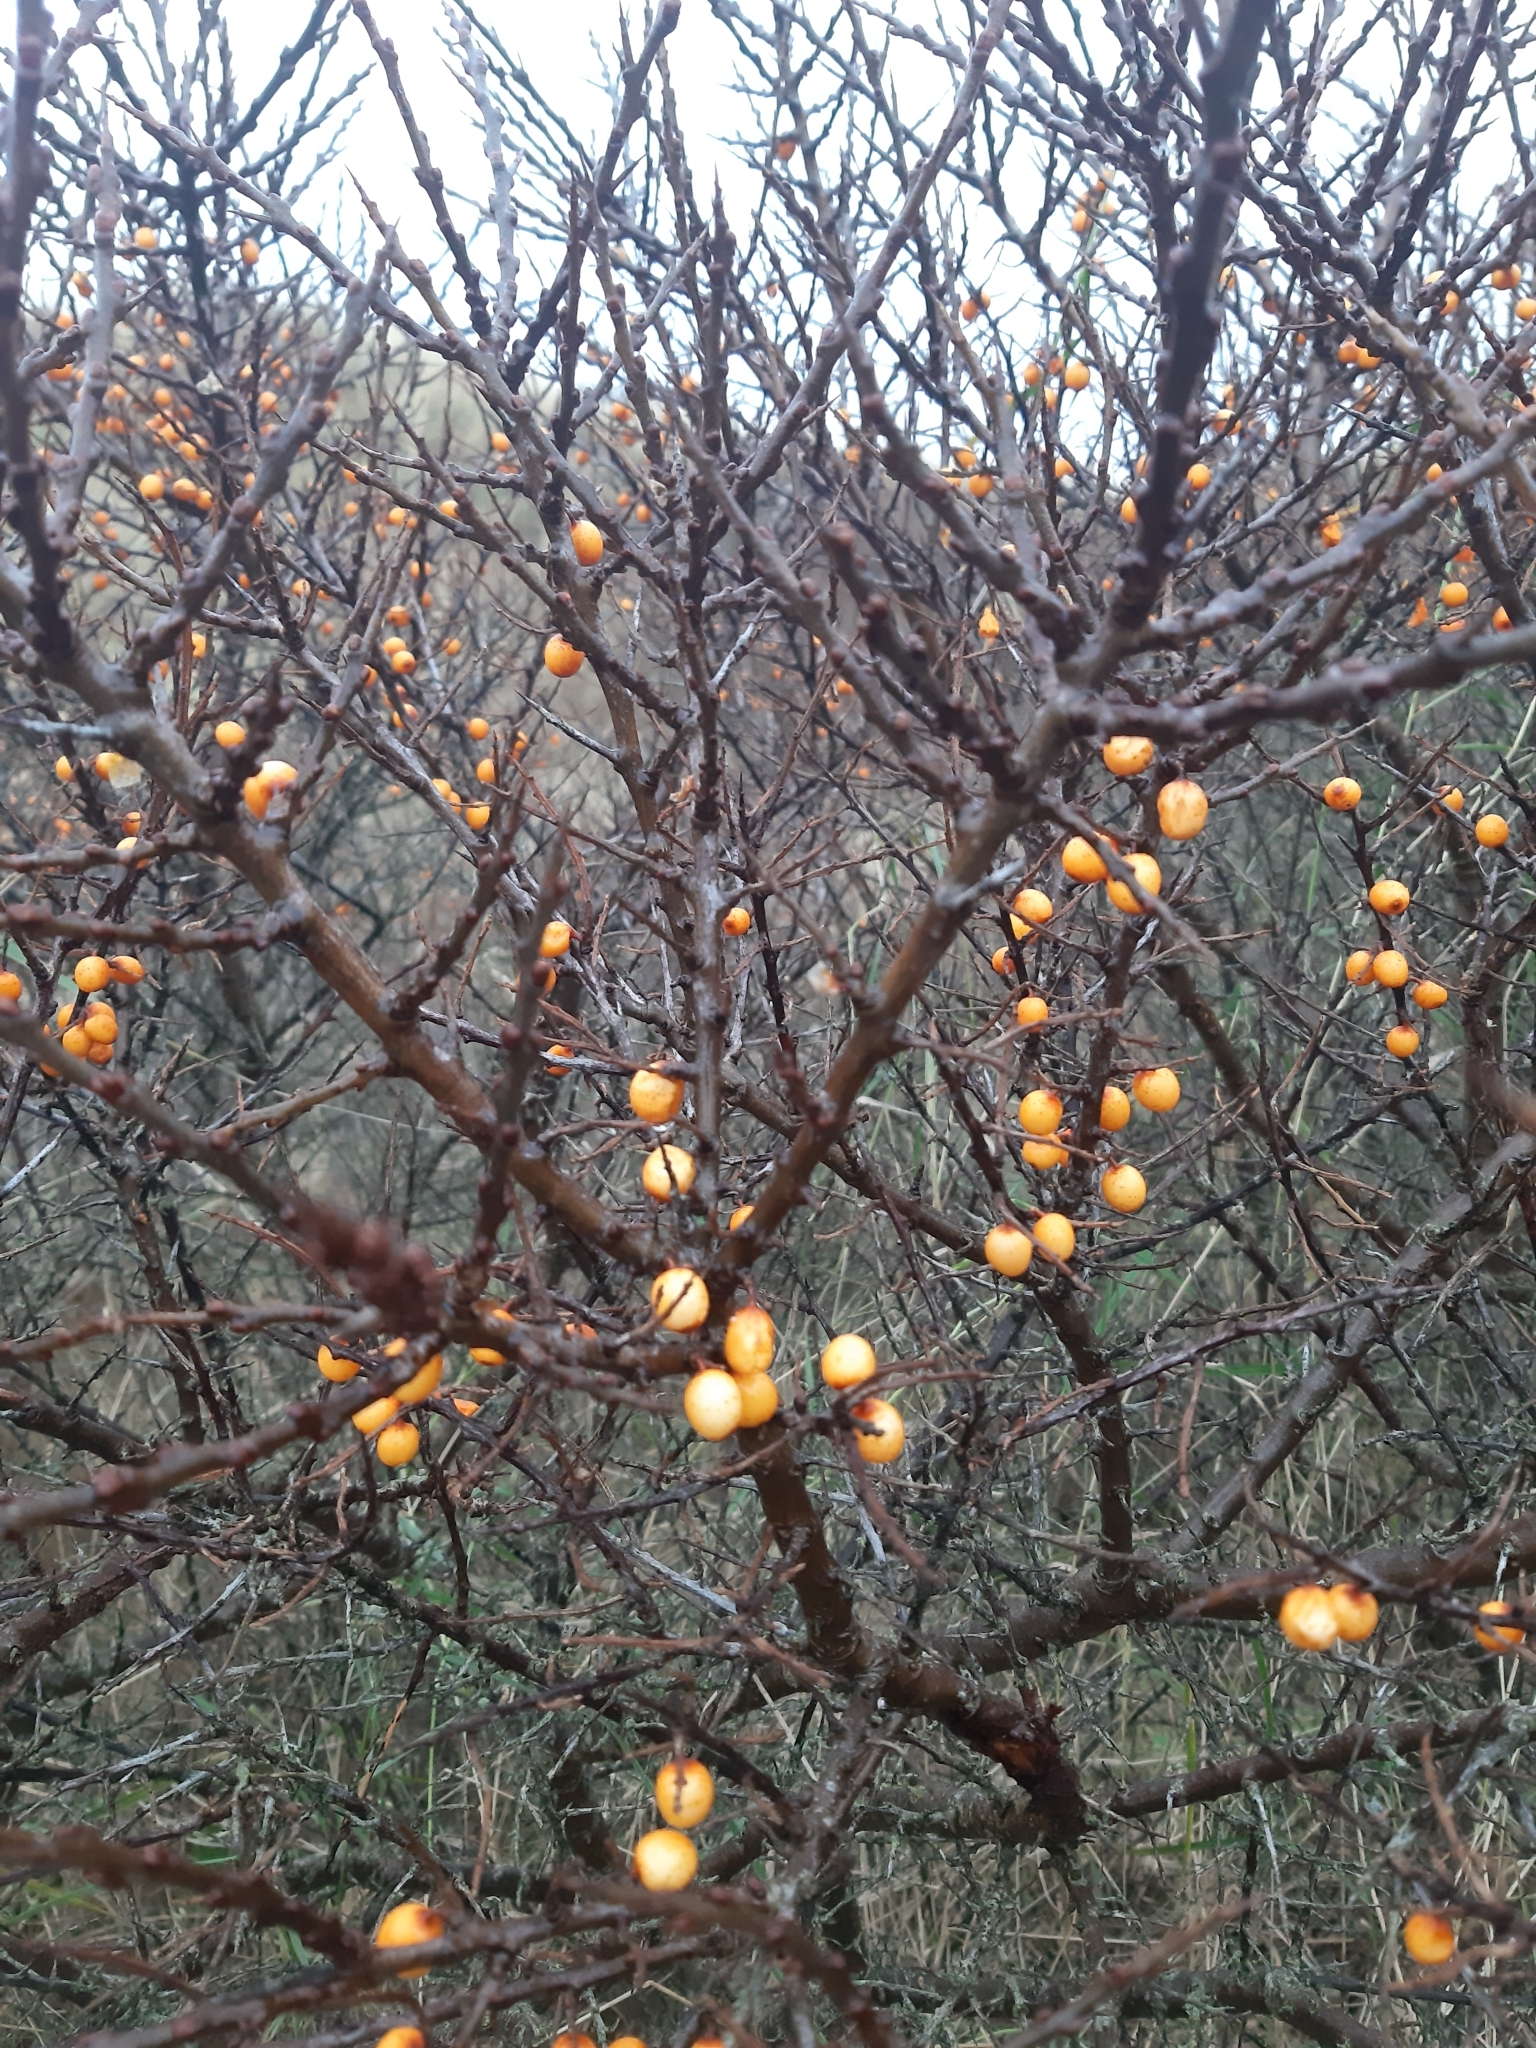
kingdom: Plantae
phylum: Tracheophyta
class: Magnoliopsida
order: Rosales
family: Elaeagnaceae
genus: Hippophae
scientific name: Hippophae rhamnoides
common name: Sea-buckthorn
